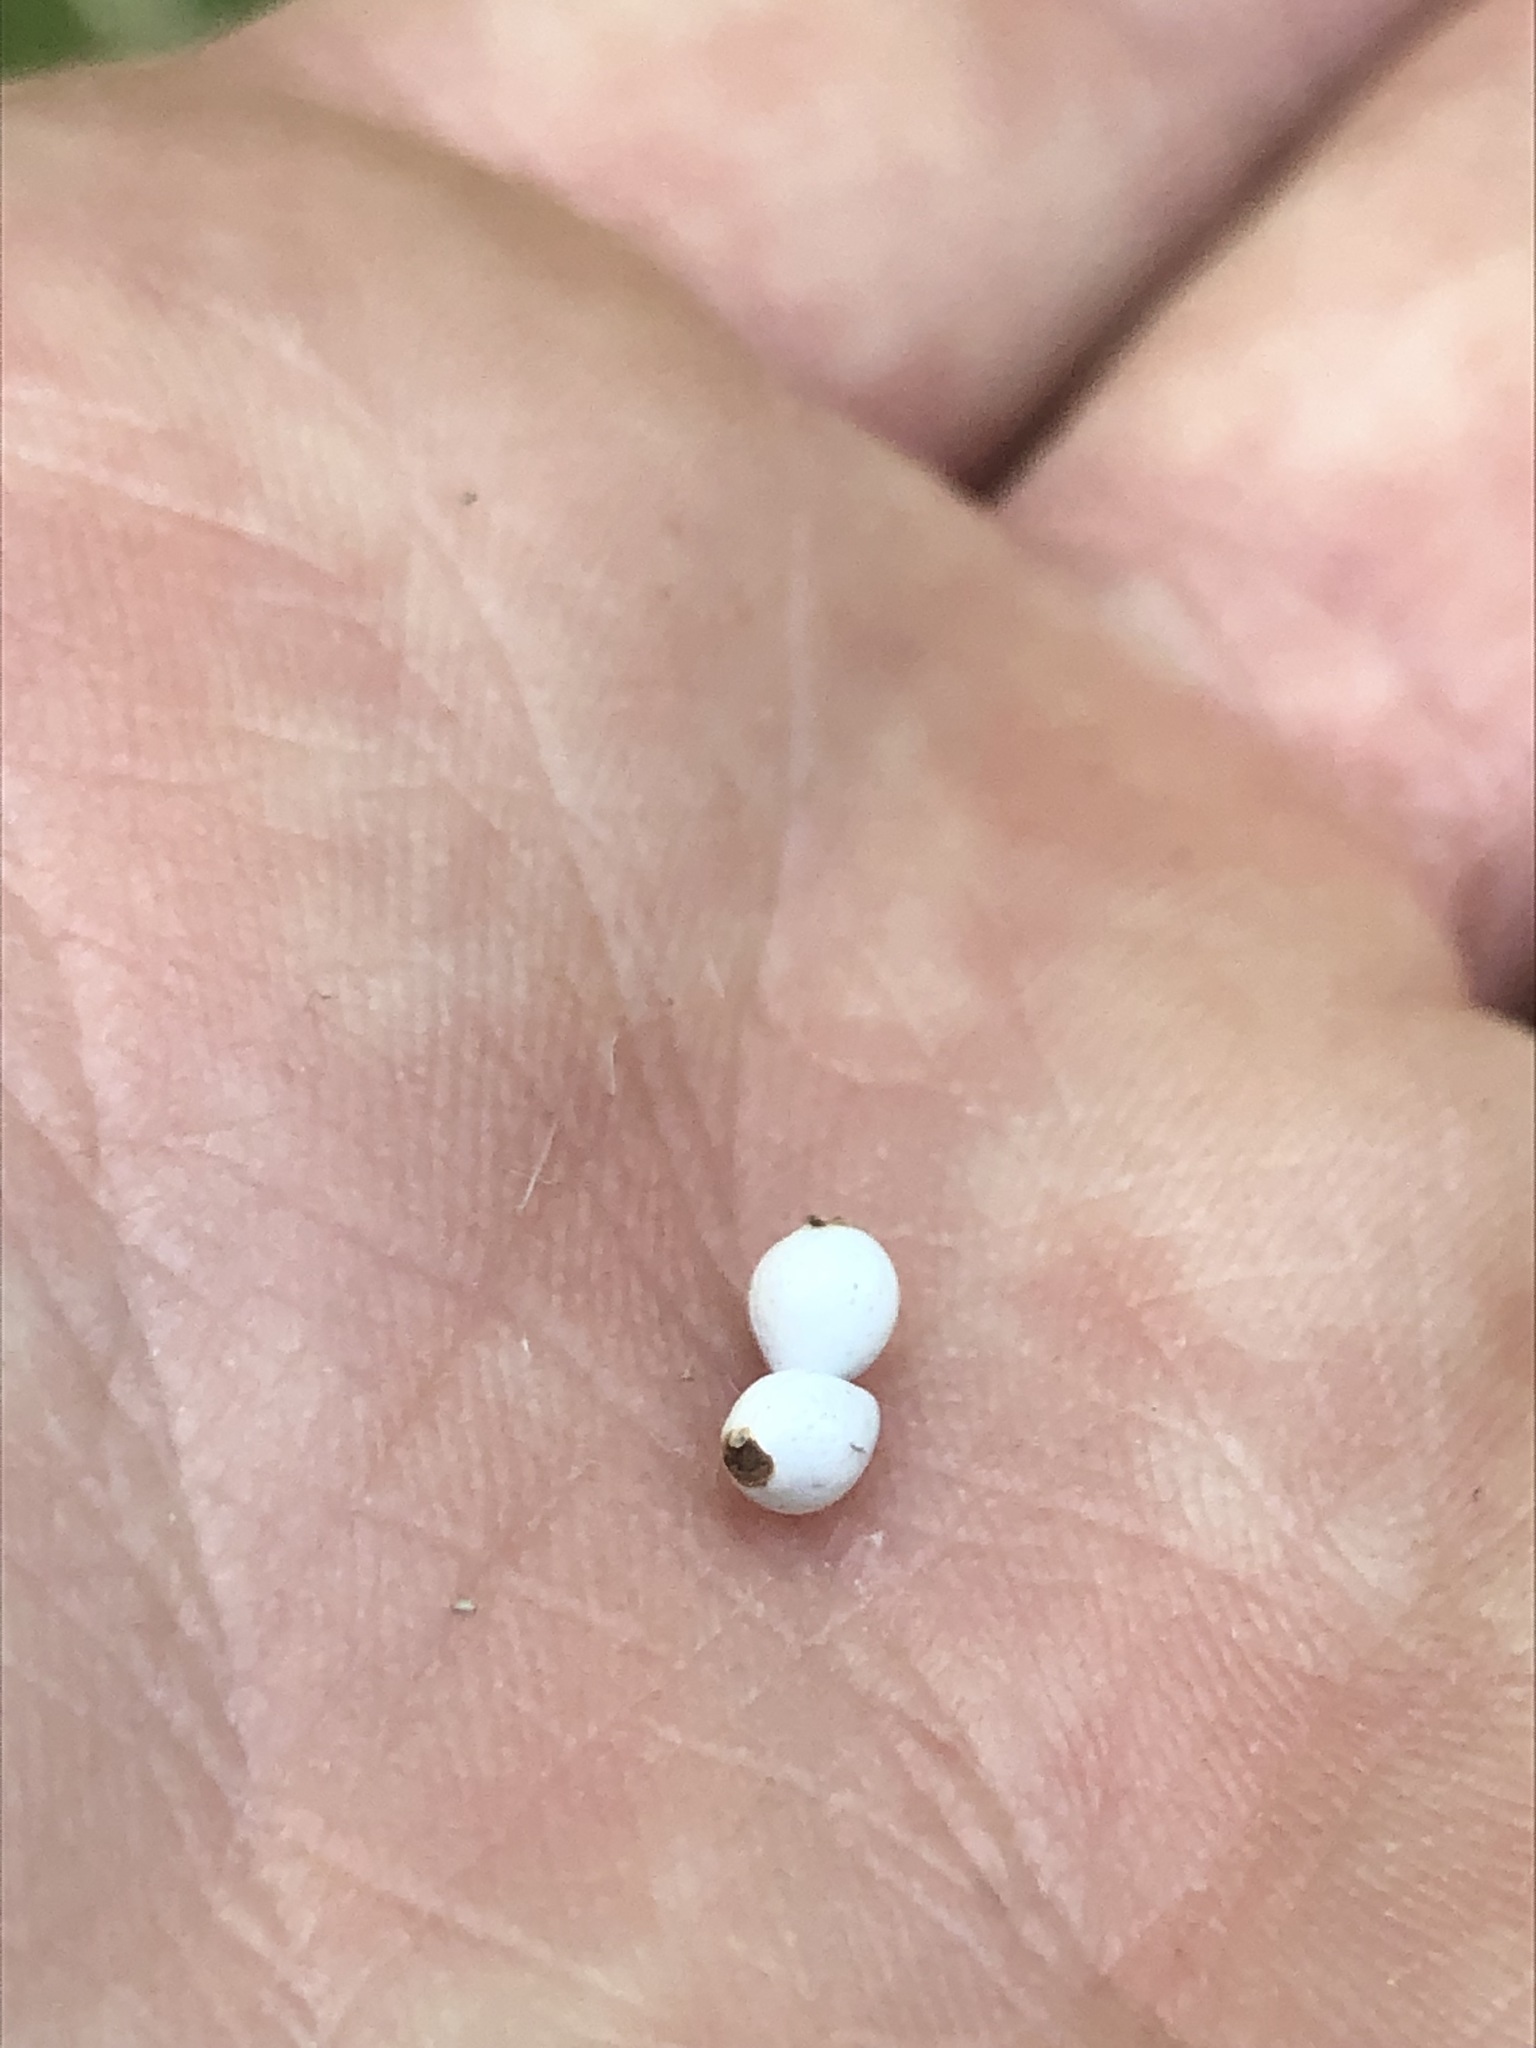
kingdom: Plantae
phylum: Tracheophyta
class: Magnoliopsida
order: Boraginales
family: Boraginaceae
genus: Lithospermum
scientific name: Lithospermum caroliniense
